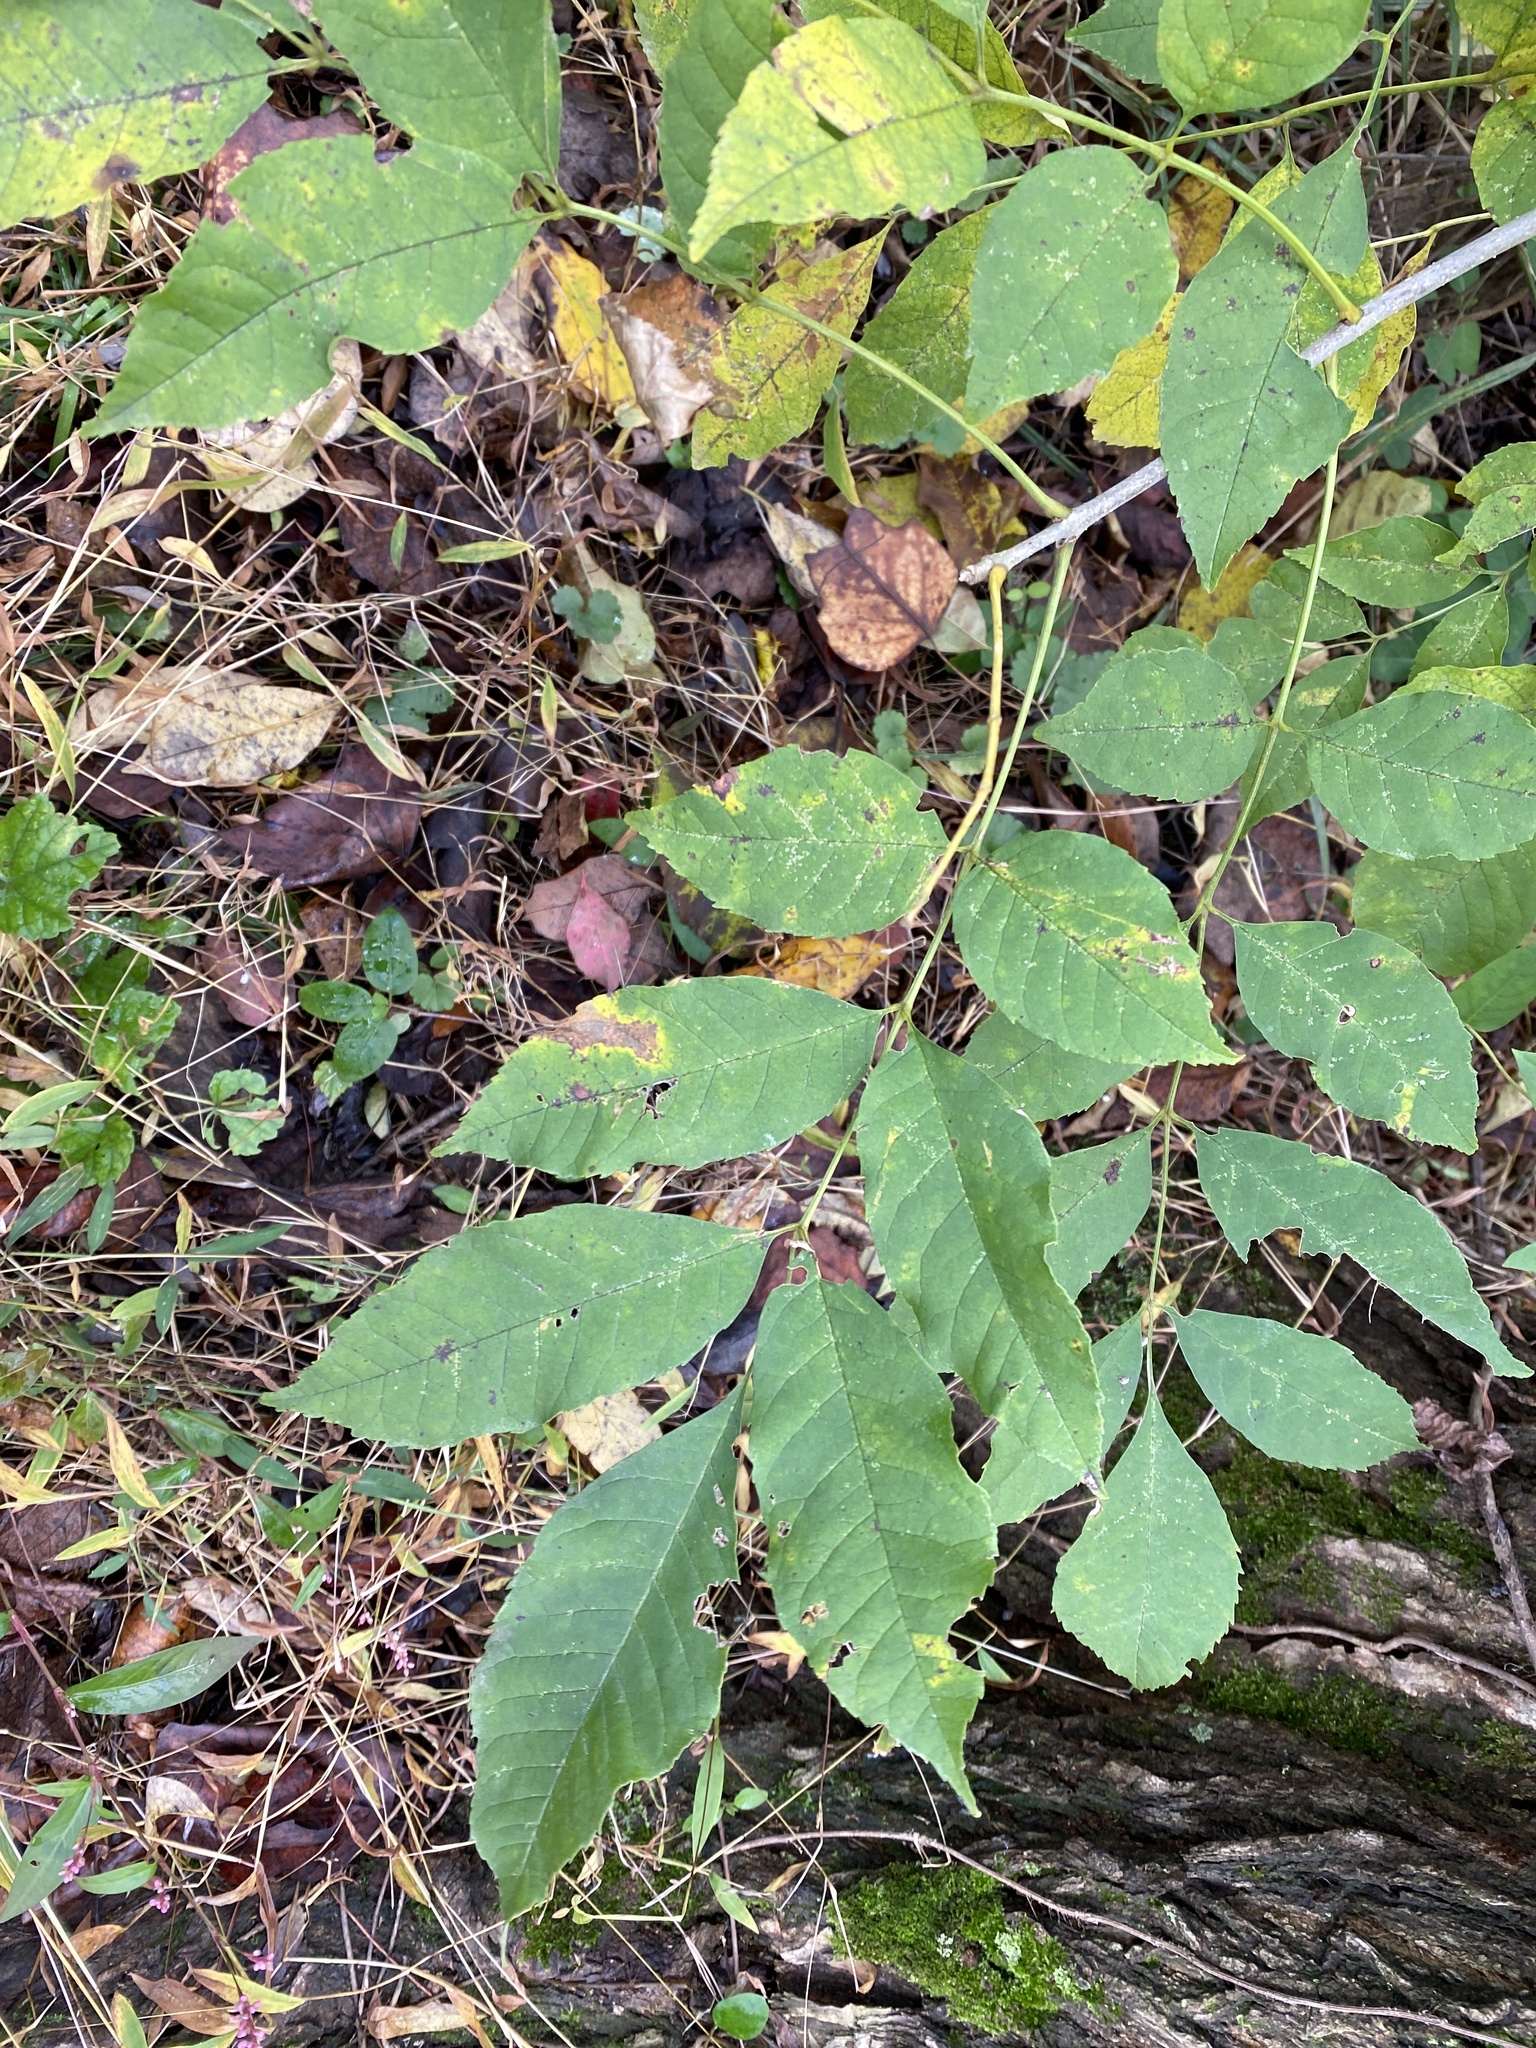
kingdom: Plantae
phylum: Tracheophyta
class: Magnoliopsida
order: Lamiales
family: Oleaceae
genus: Fraxinus
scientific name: Fraxinus pennsylvanica
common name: Green ash
